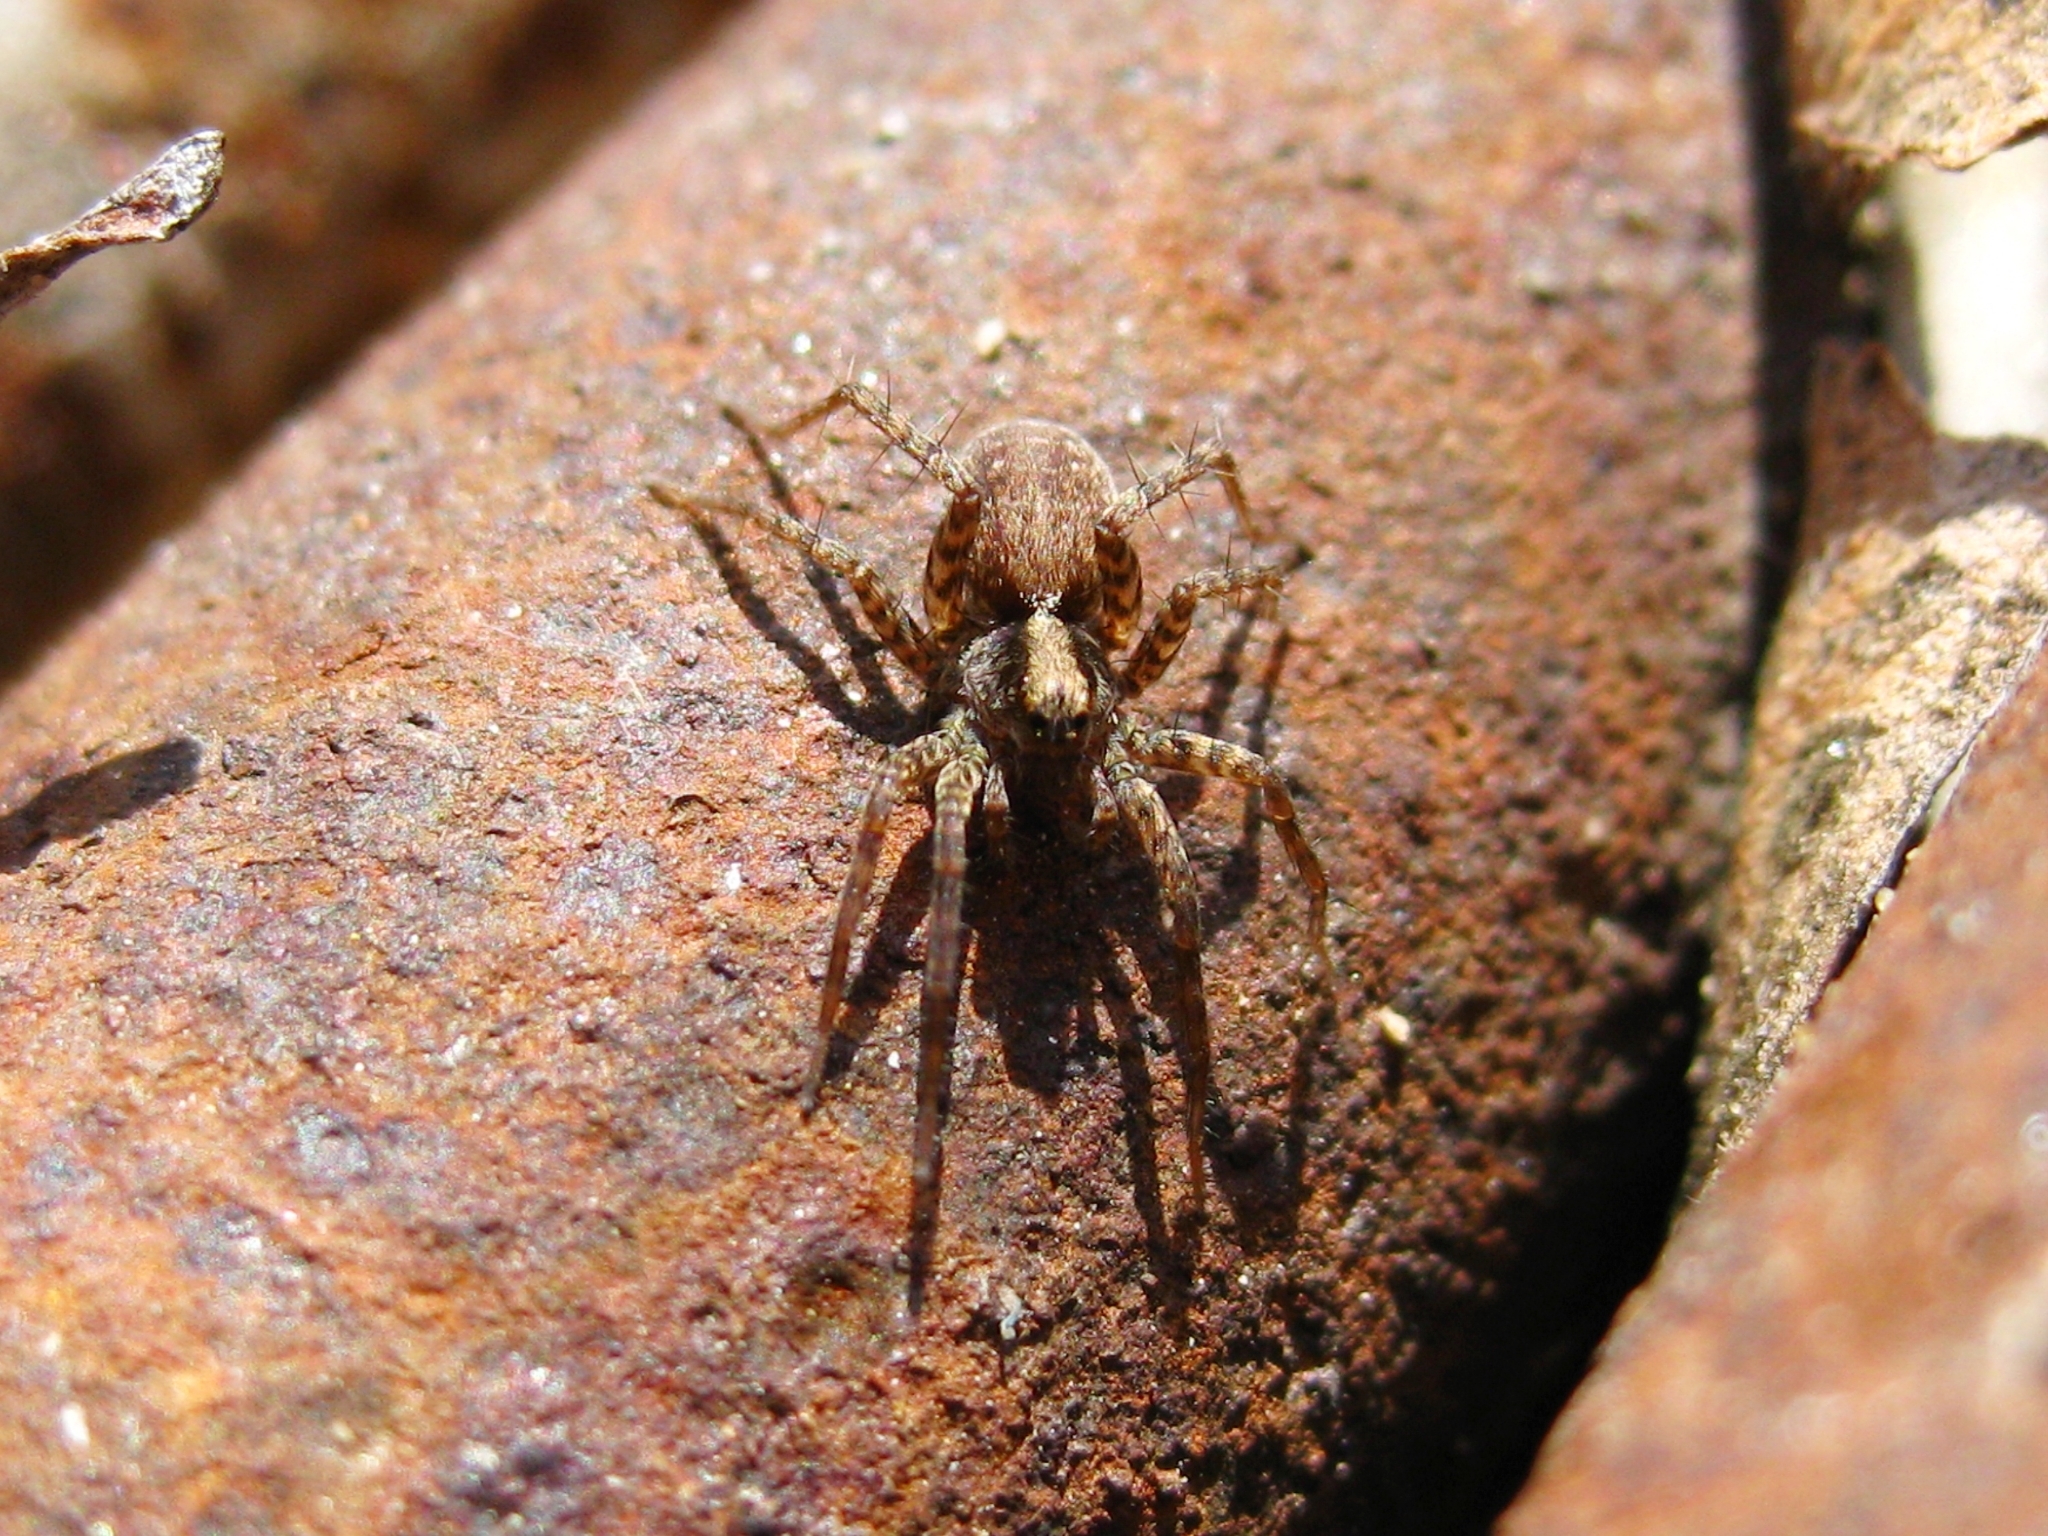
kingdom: Animalia
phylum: Arthropoda
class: Arachnida
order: Araneae
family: Lycosidae
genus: Pardosa
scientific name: Pardosa
